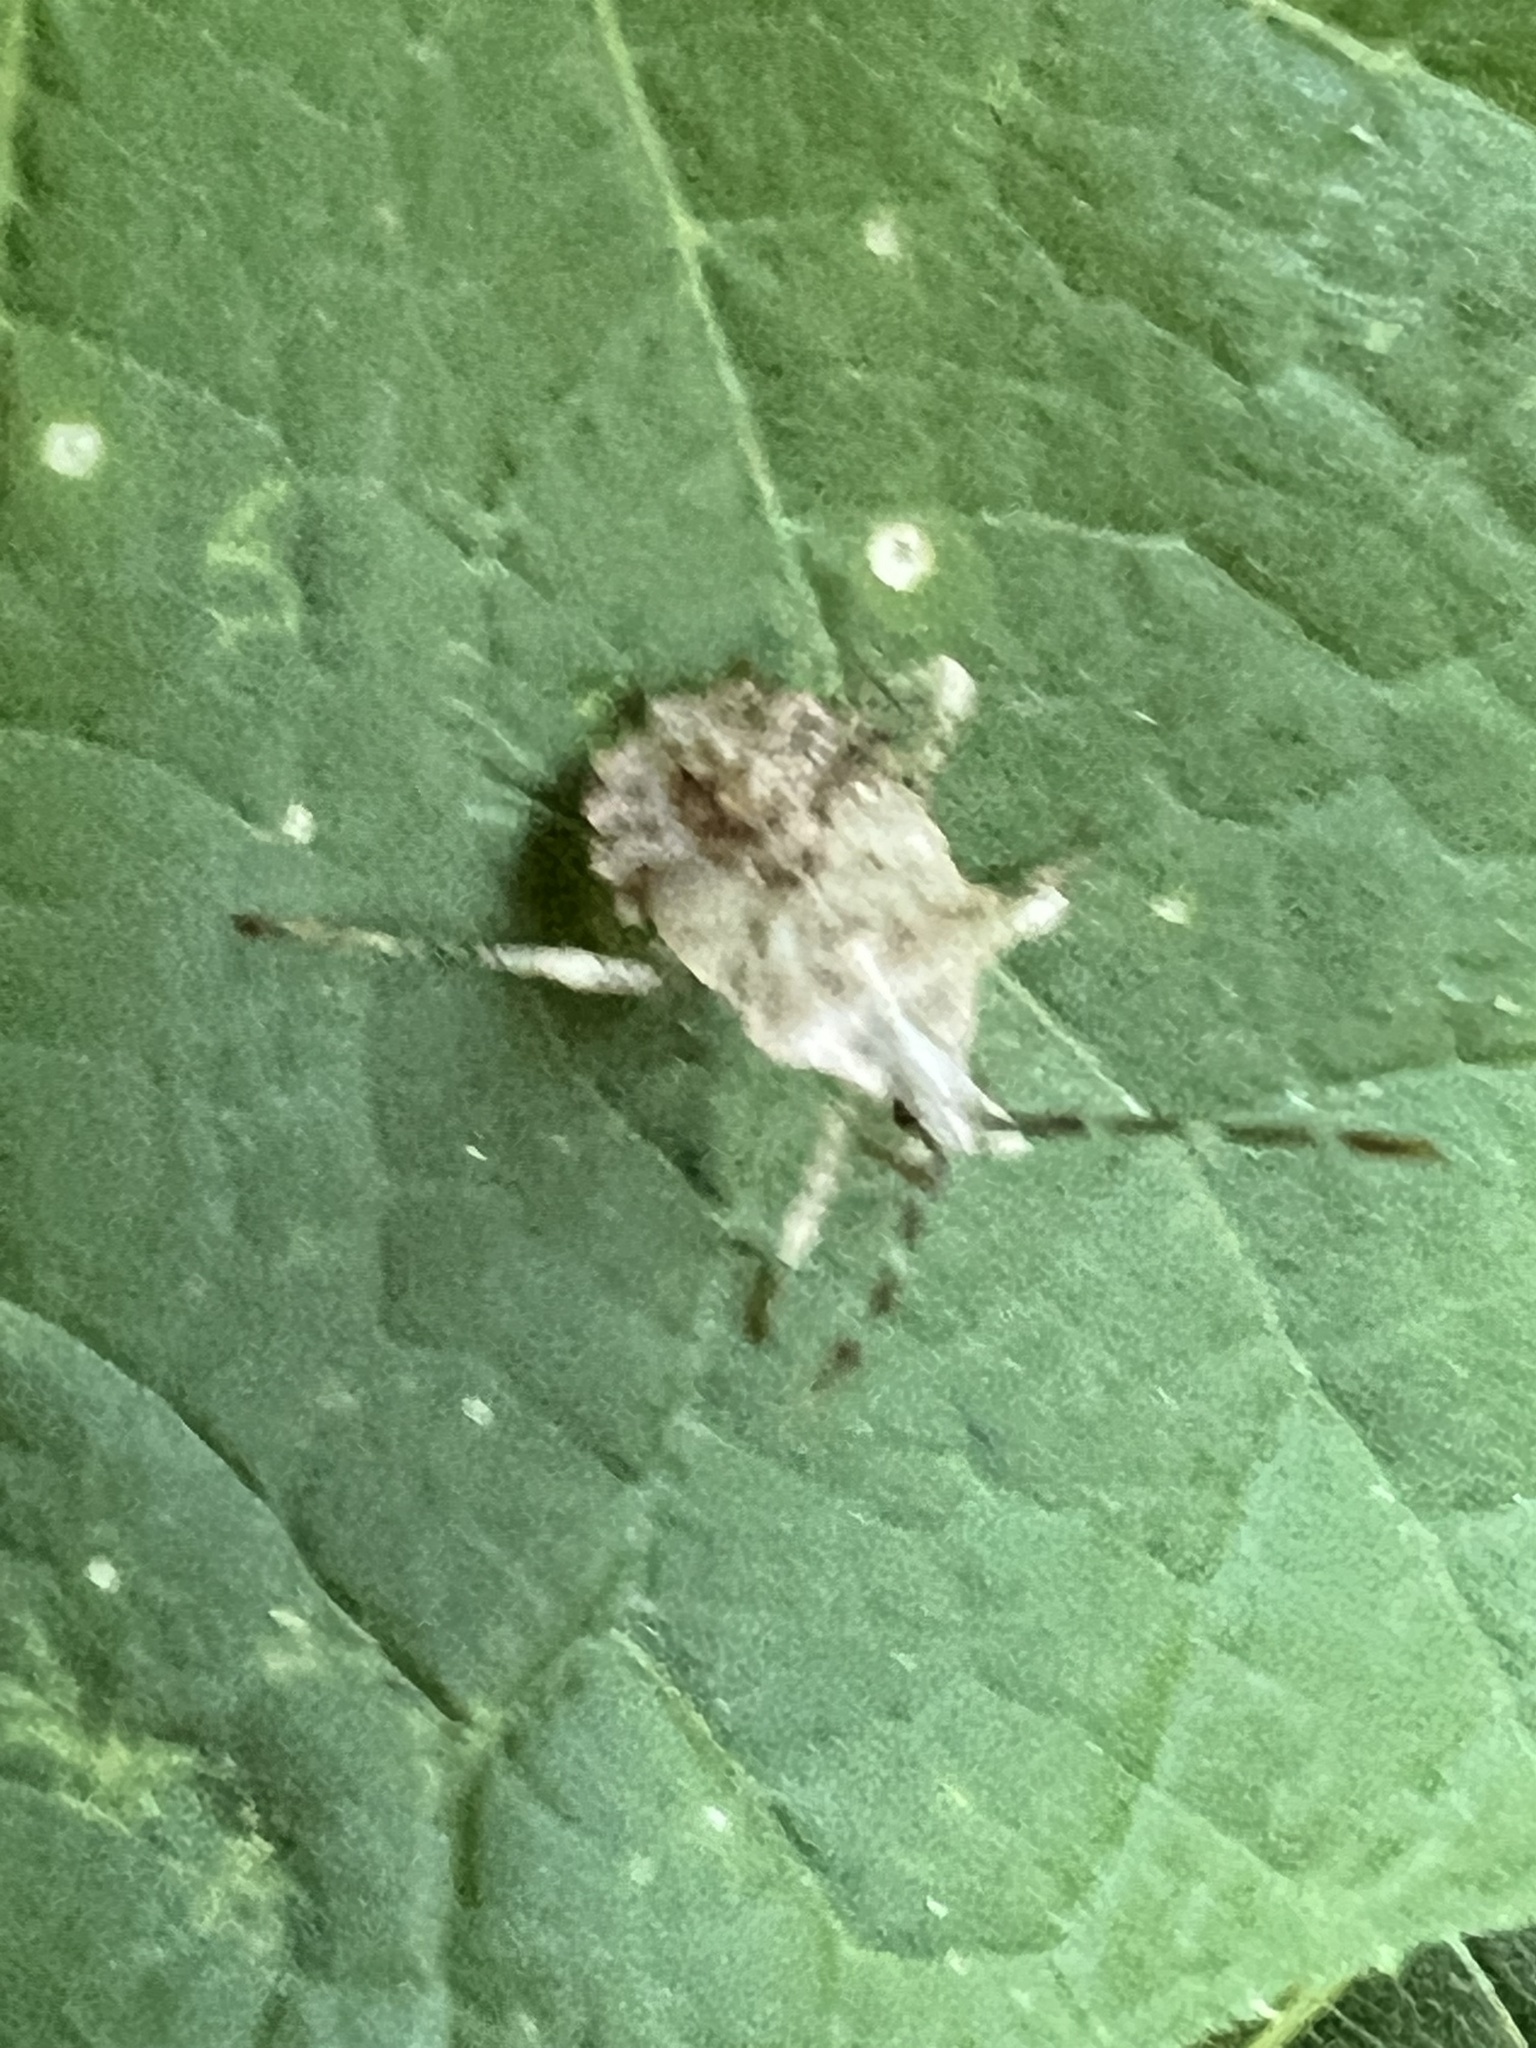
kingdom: Animalia
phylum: Arthropoda
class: Insecta
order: Hemiptera
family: Coreidae
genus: Anasa
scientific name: Anasa armigera
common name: Horned squash bug
